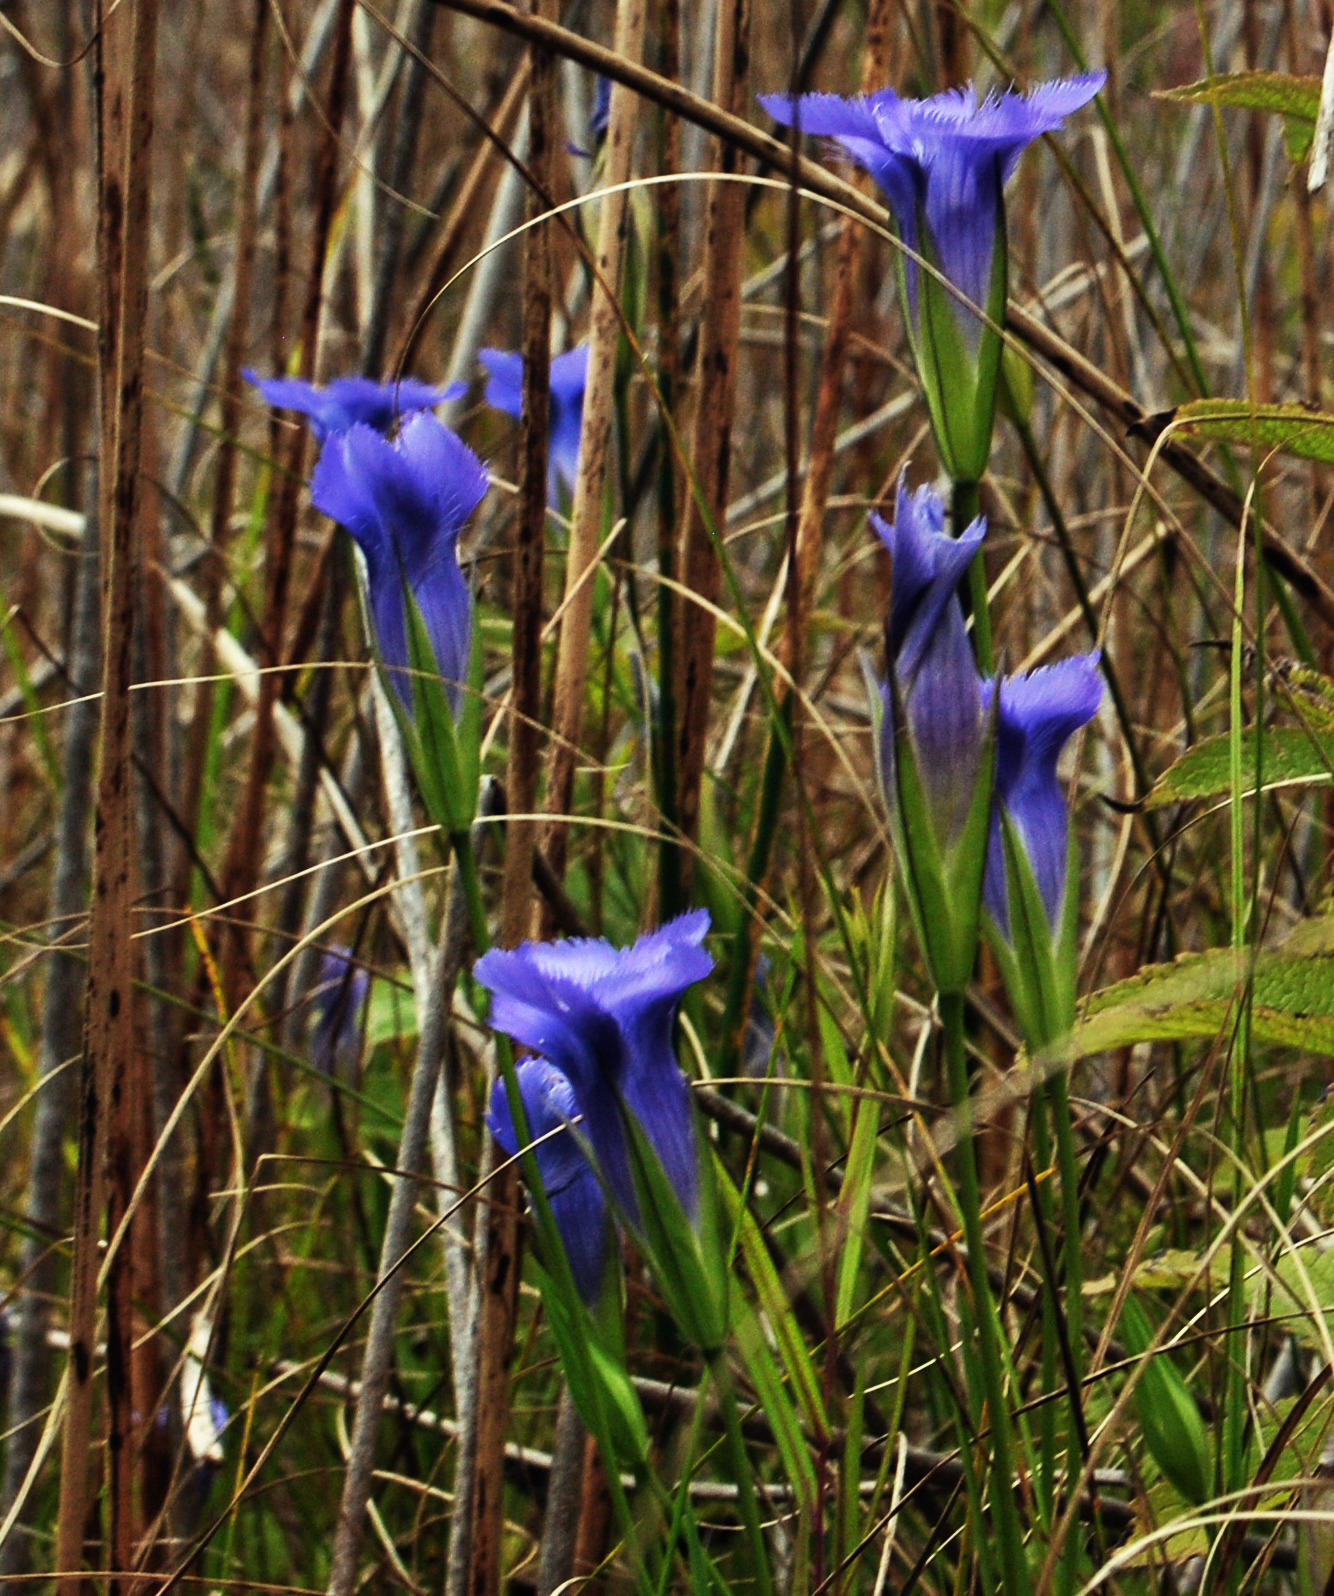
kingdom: Plantae
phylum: Tracheophyta
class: Magnoliopsida
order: Gentianales
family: Gentianaceae
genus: Gentianopsis
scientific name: Gentianopsis virgata
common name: Lesser fringed-gentian
